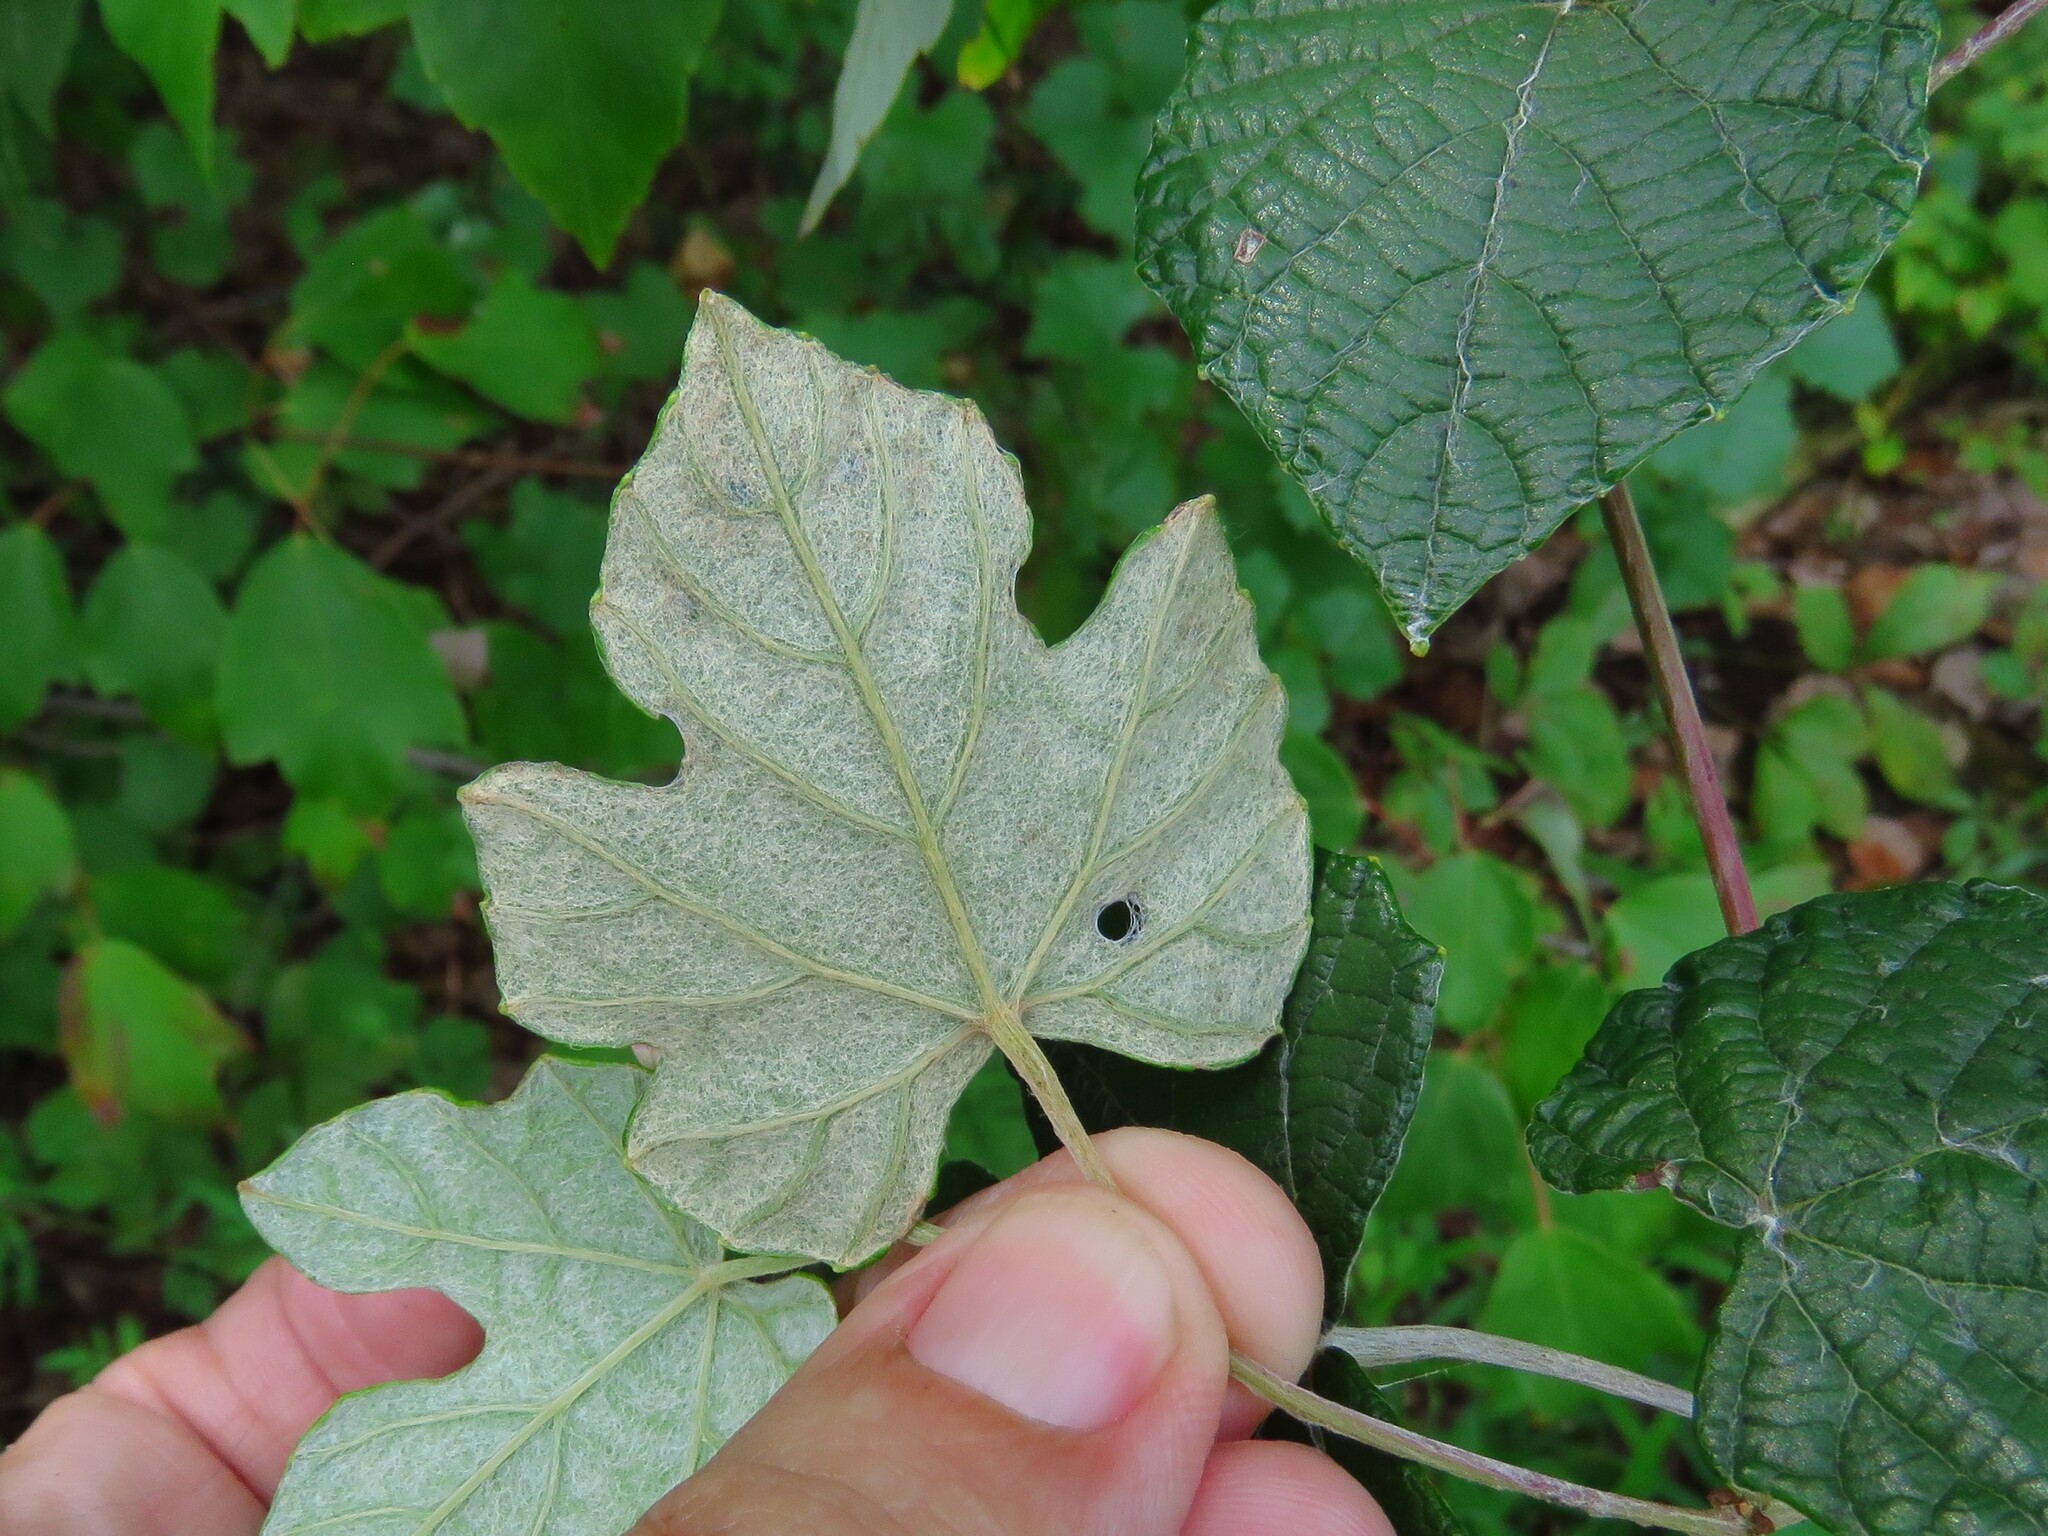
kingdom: Plantae
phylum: Tracheophyta
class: Magnoliopsida
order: Vitales
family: Vitaceae
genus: Vitis
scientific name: Vitis mustangensis
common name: Mustang grape
